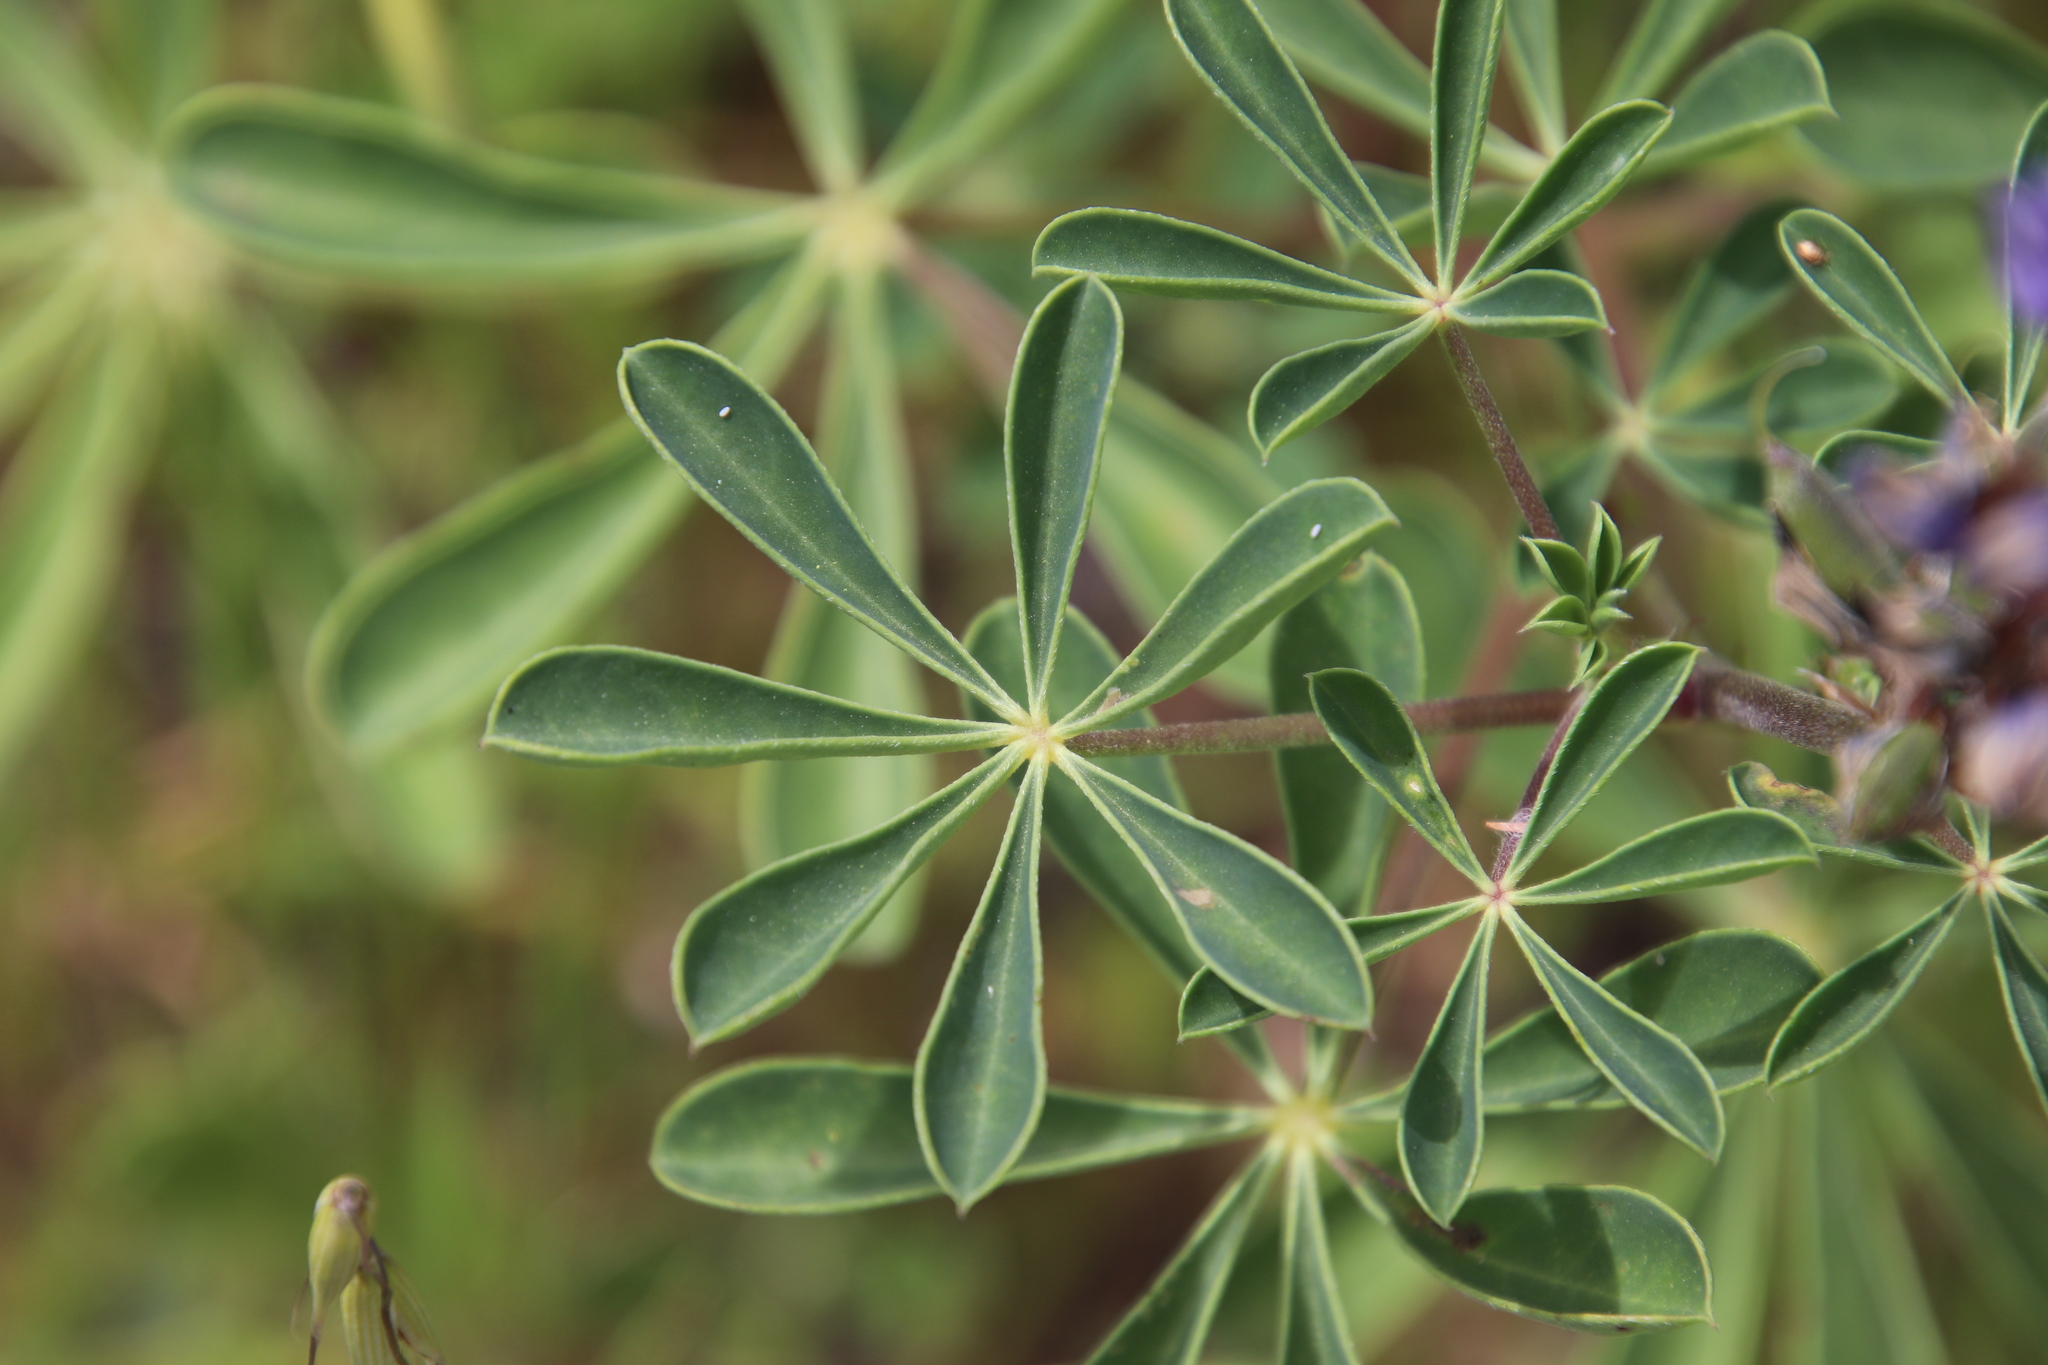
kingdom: Plantae
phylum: Tracheophyta
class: Magnoliopsida
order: Fabales
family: Fabaceae
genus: Lupinus
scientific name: Lupinus succulentus
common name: Arroyo lupine
